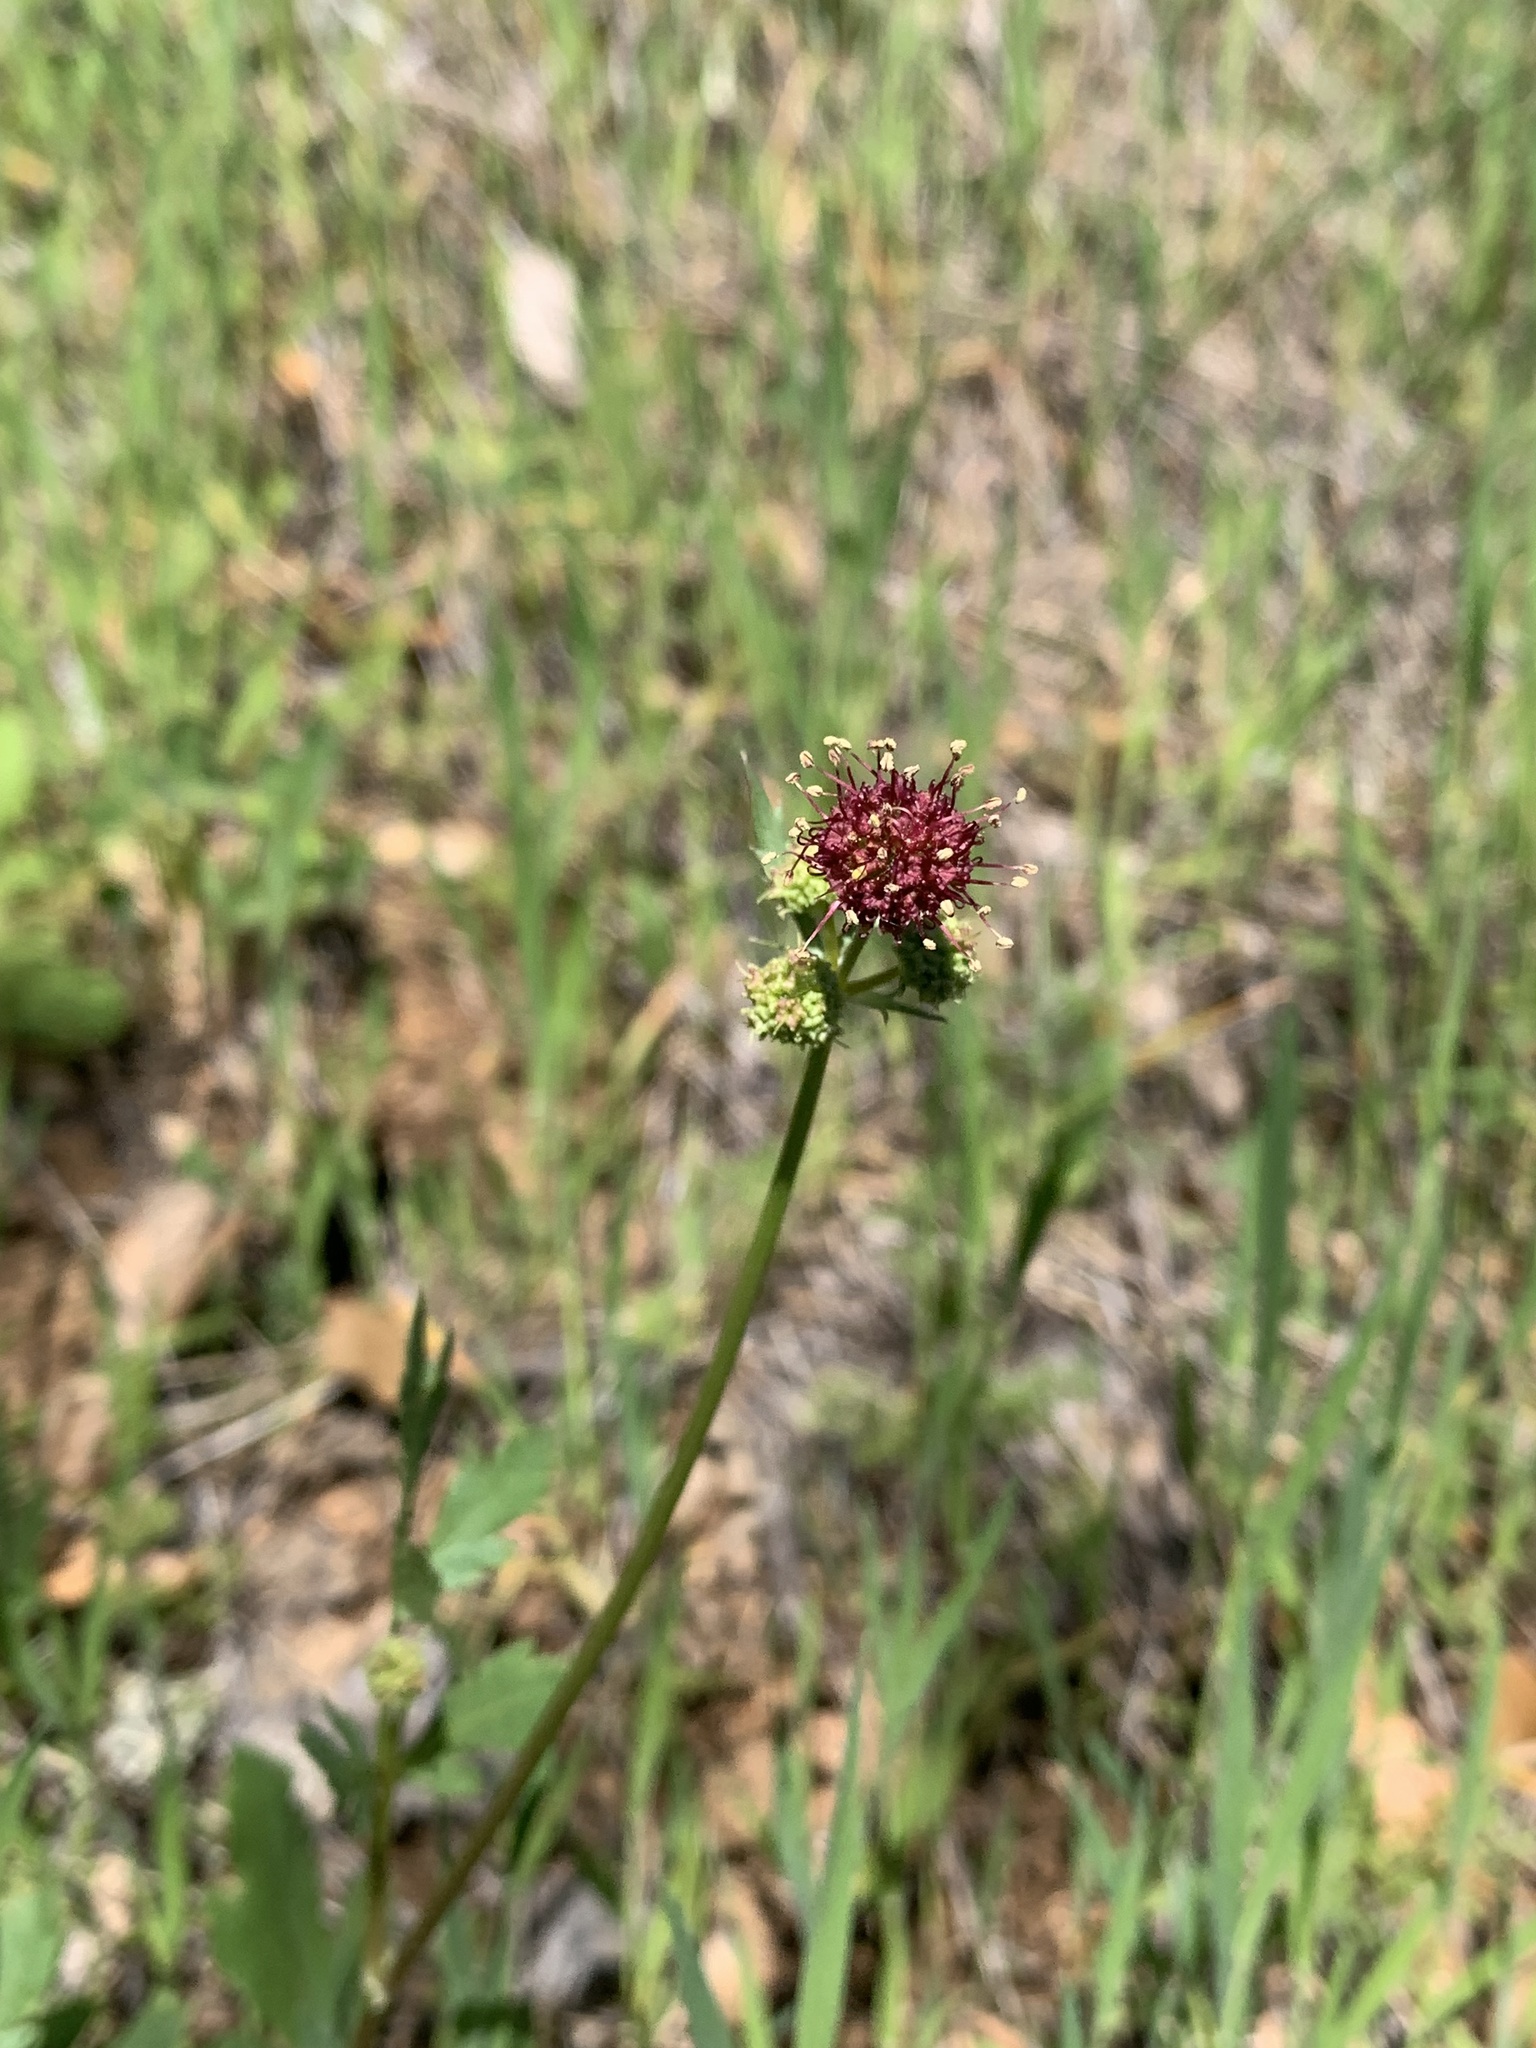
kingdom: Plantae
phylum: Tracheophyta
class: Magnoliopsida
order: Apiales
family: Apiaceae
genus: Sanicula
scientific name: Sanicula bipinnatifida
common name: Shoe-buttons
